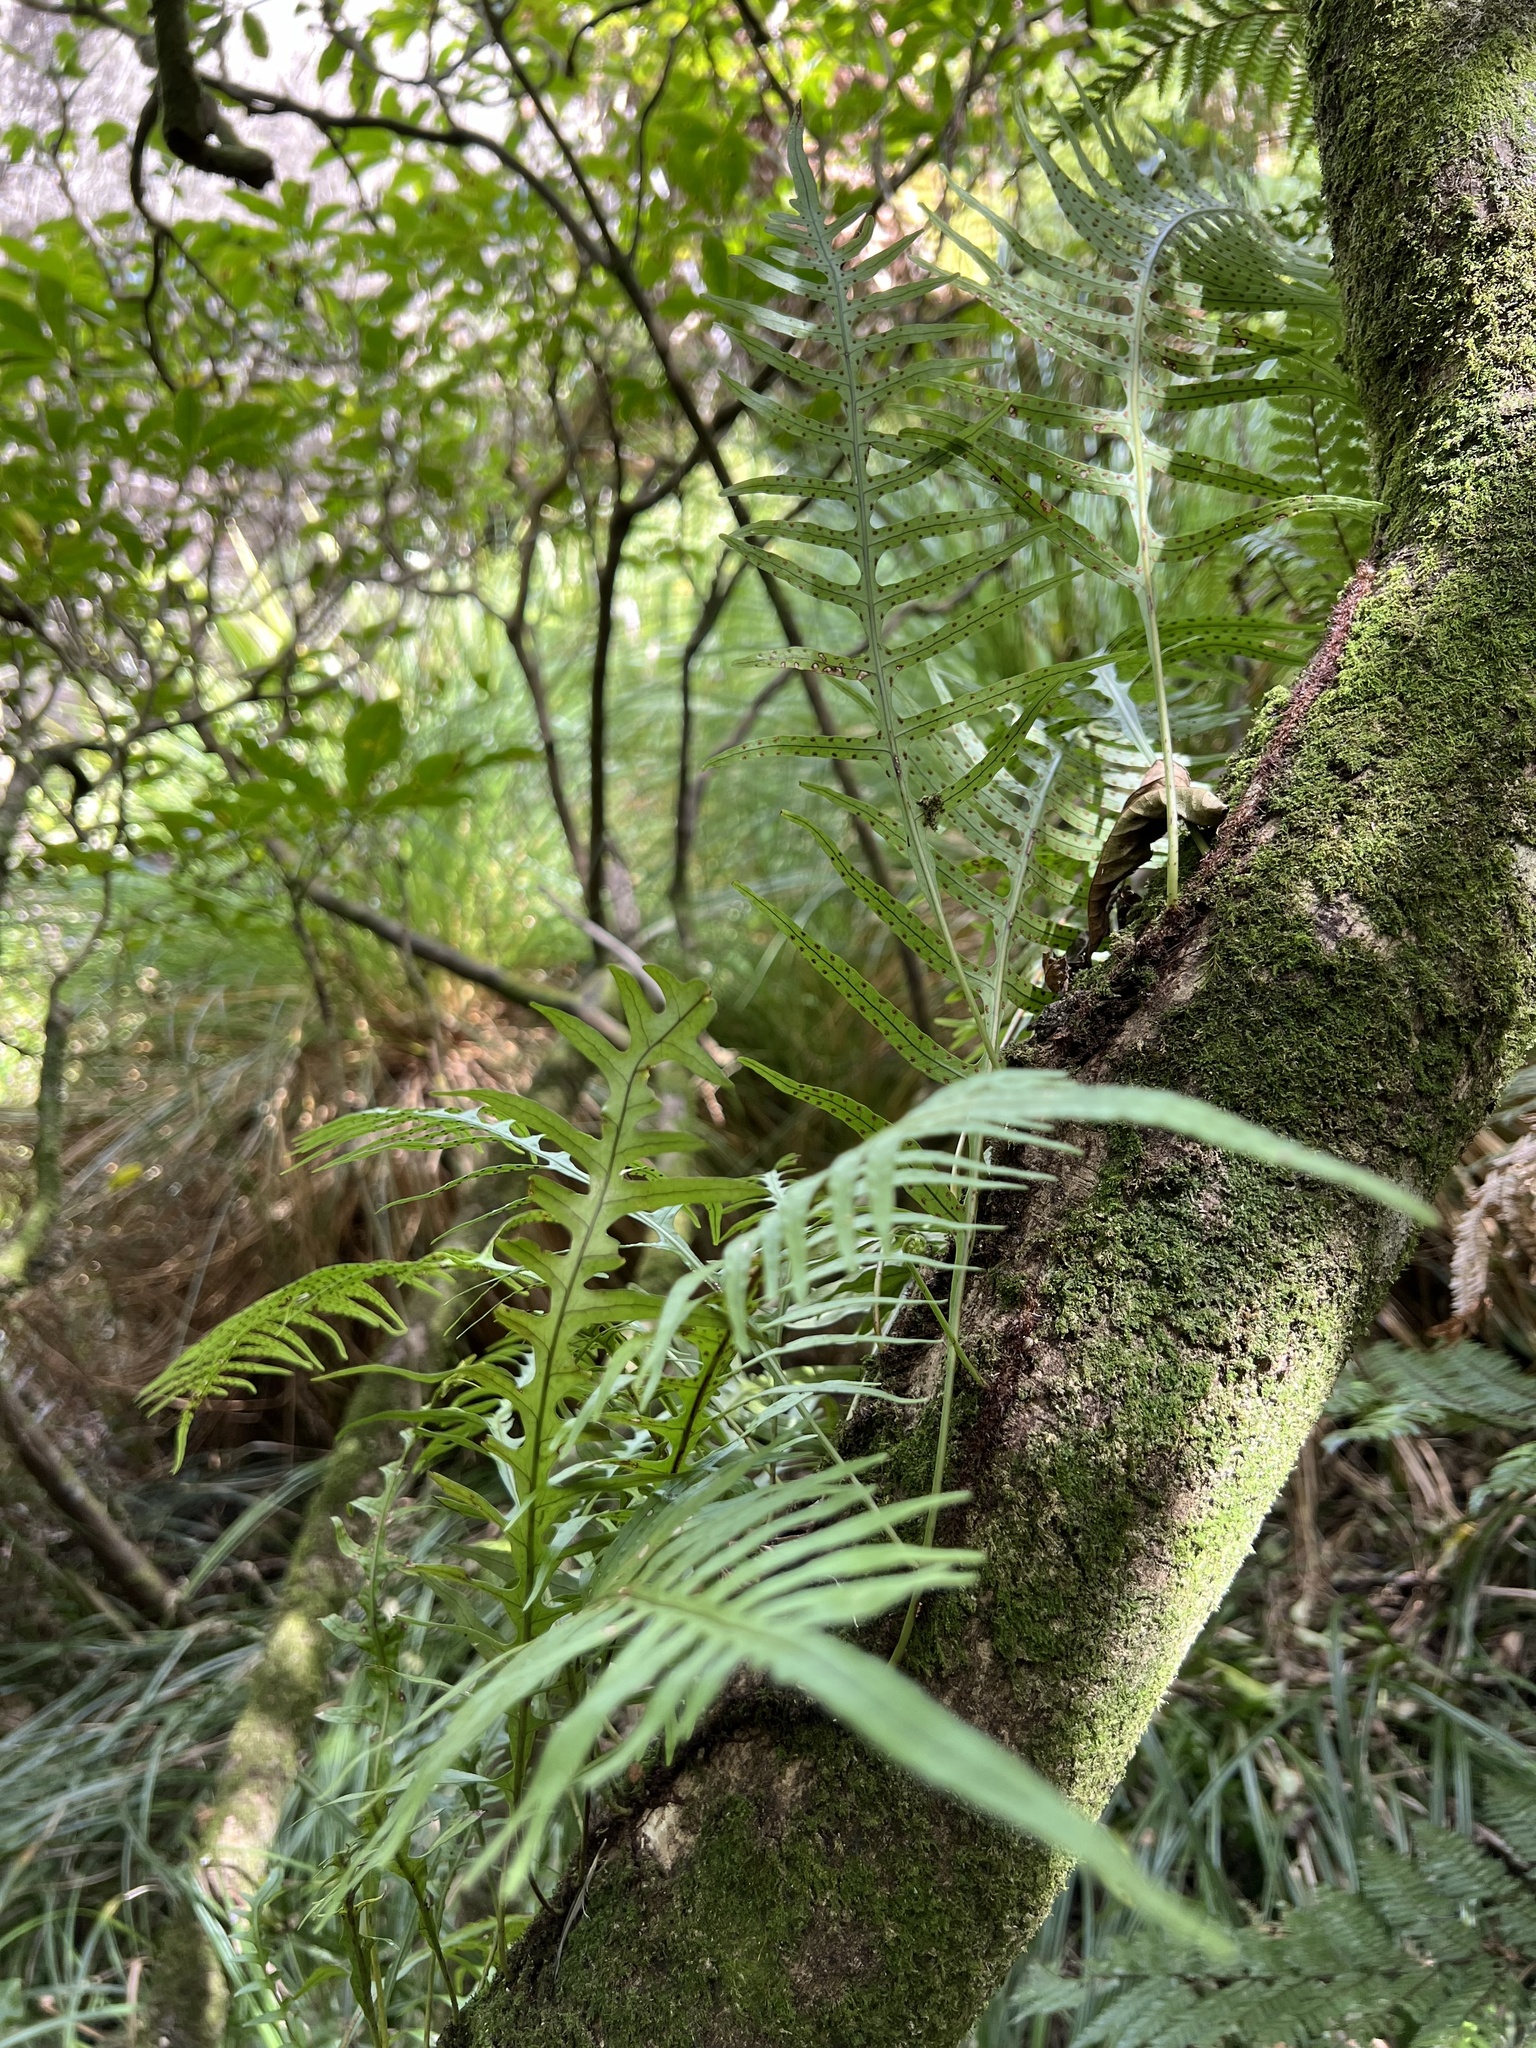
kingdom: Plantae
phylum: Tracheophyta
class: Polypodiopsida
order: Polypodiales
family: Polypodiaceae
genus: Lecanopteris
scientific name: Lecanopteris scandens
